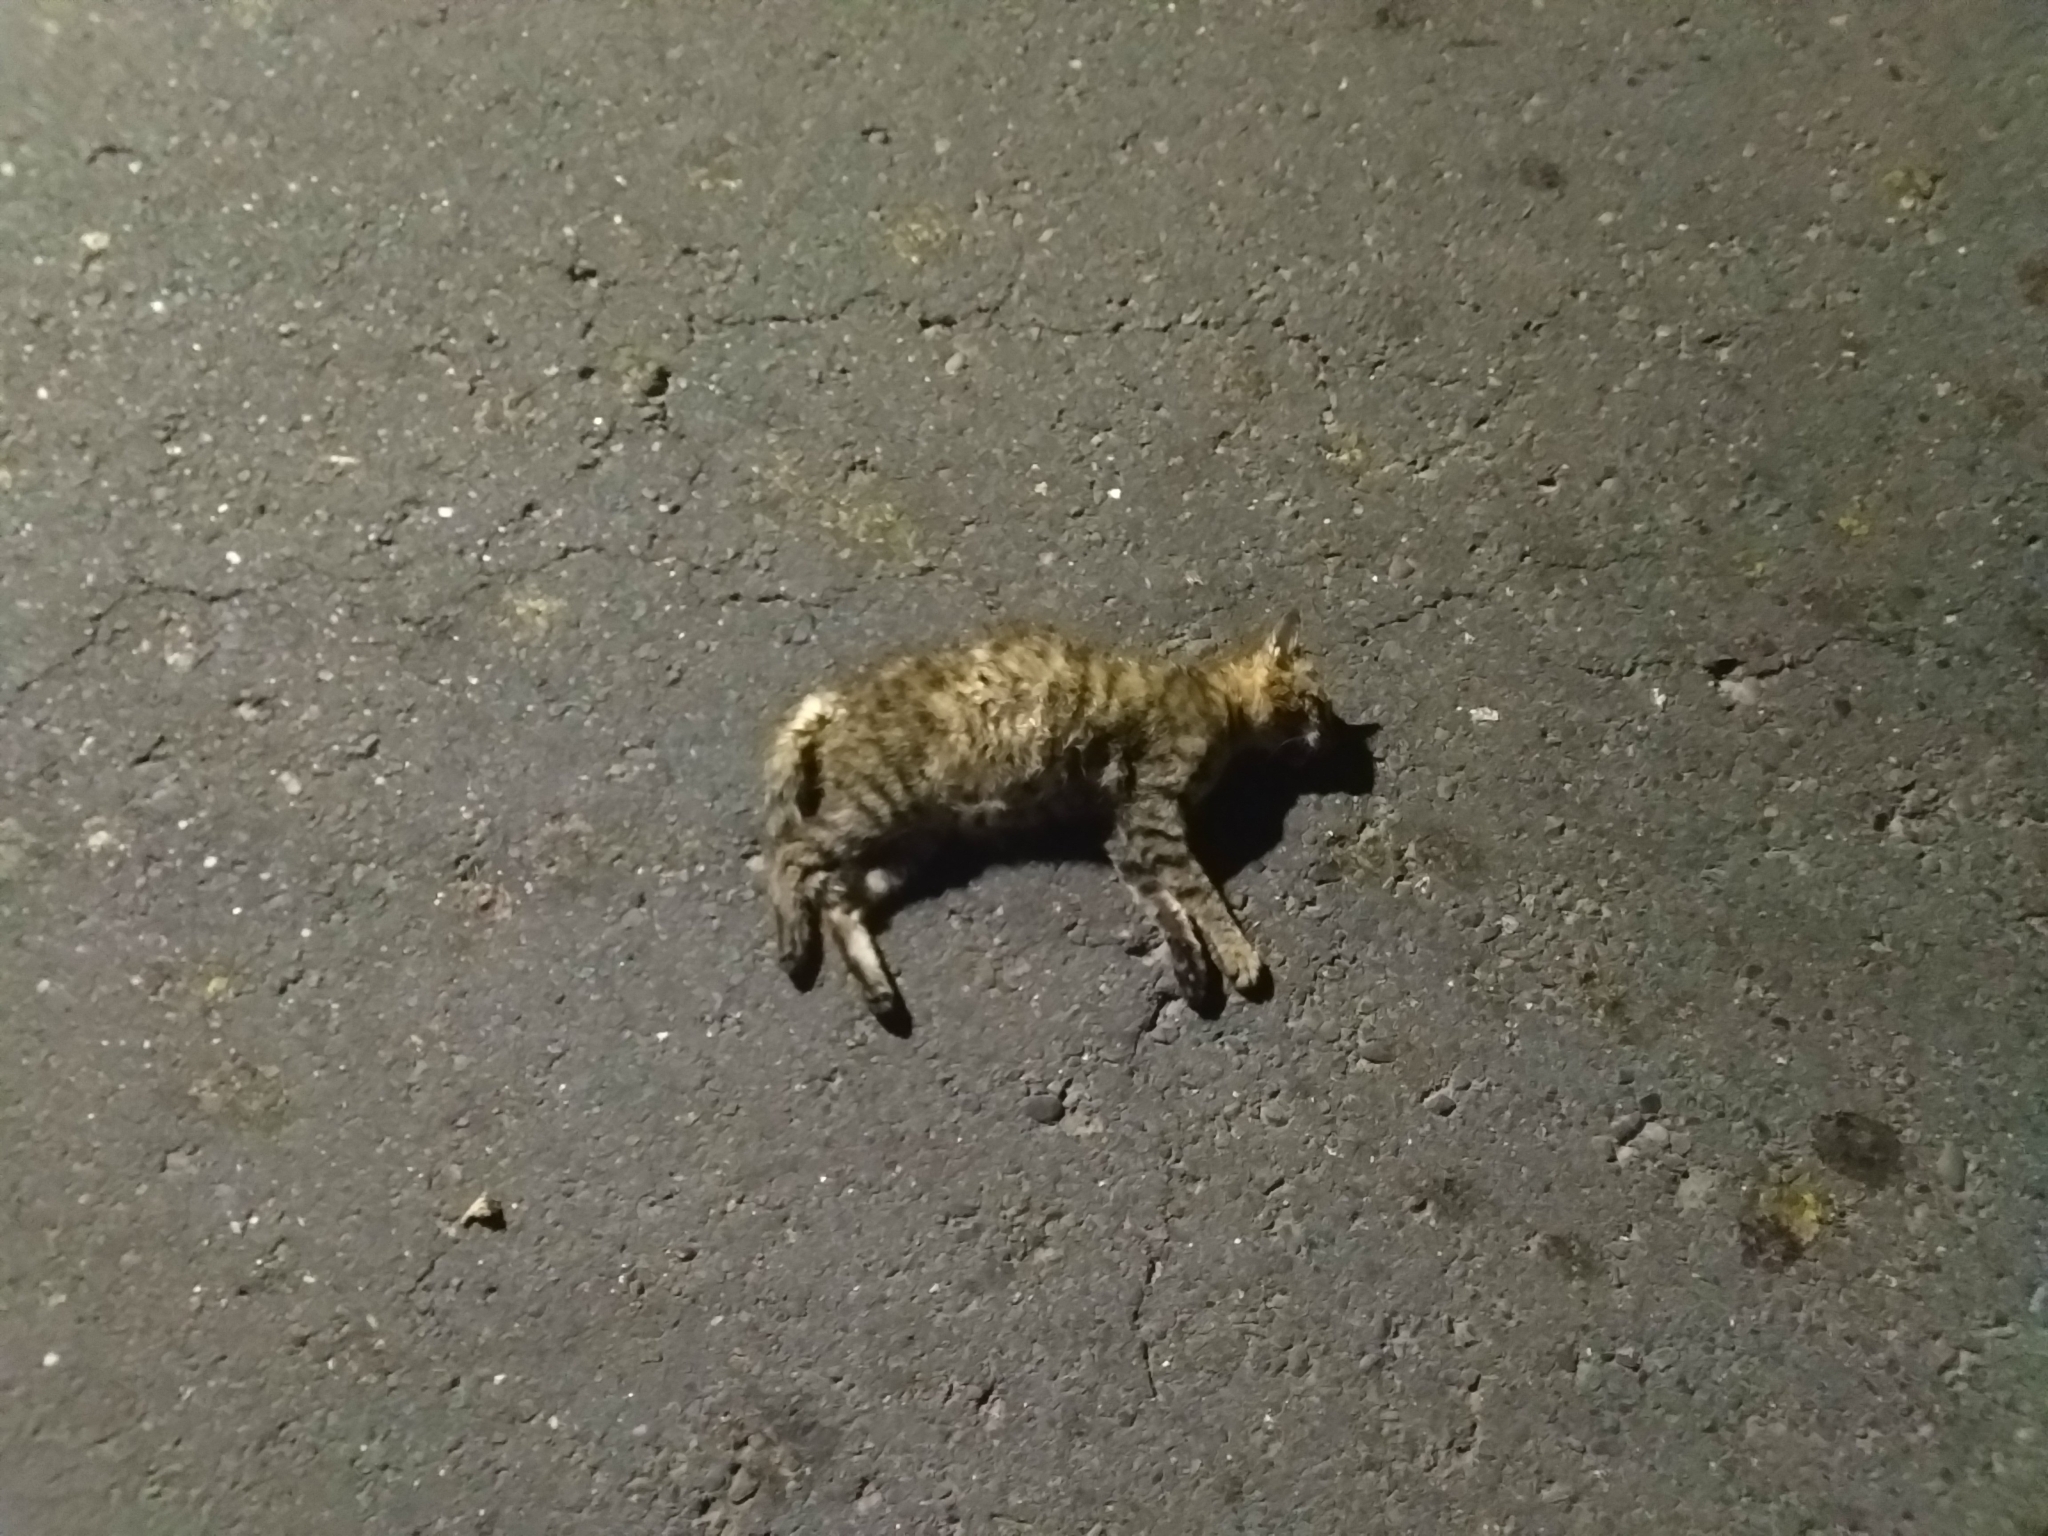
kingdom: Animalia
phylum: Chordata
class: Mammalia
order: Carnivora
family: Felidae
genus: Felis
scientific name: Felis catus
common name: Domestic cat
